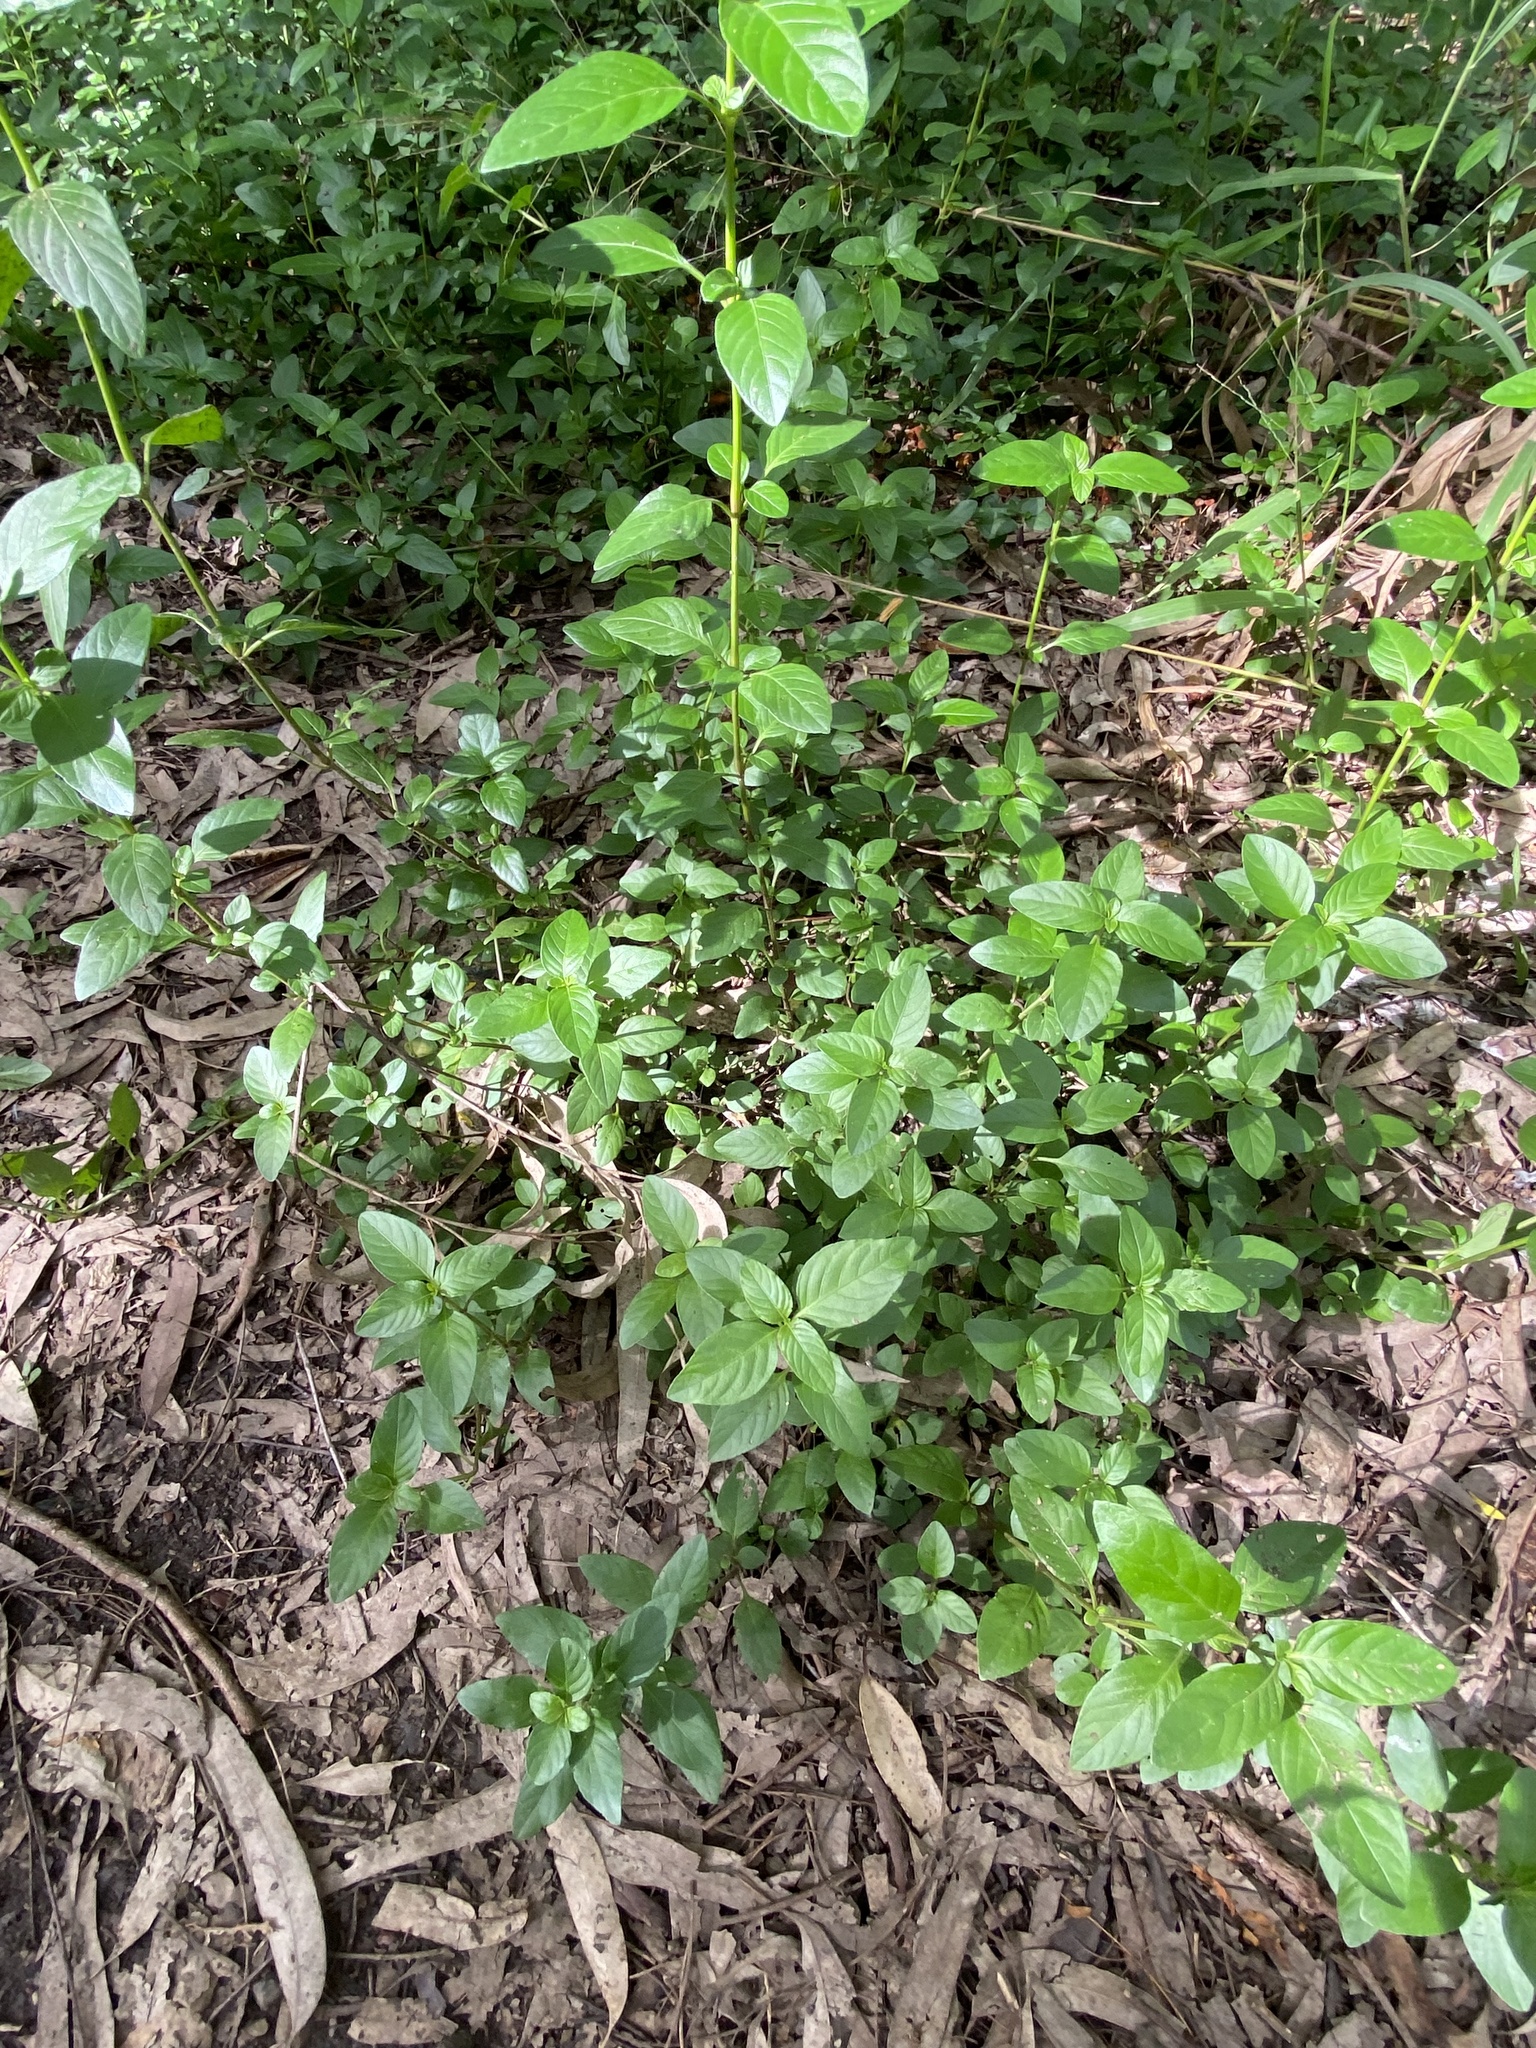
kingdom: Plantae
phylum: Tracheophyta
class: Magnoliopsida
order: Lamiales
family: Acanthaceae
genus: Hygrophila
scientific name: Hygrophila erecta
